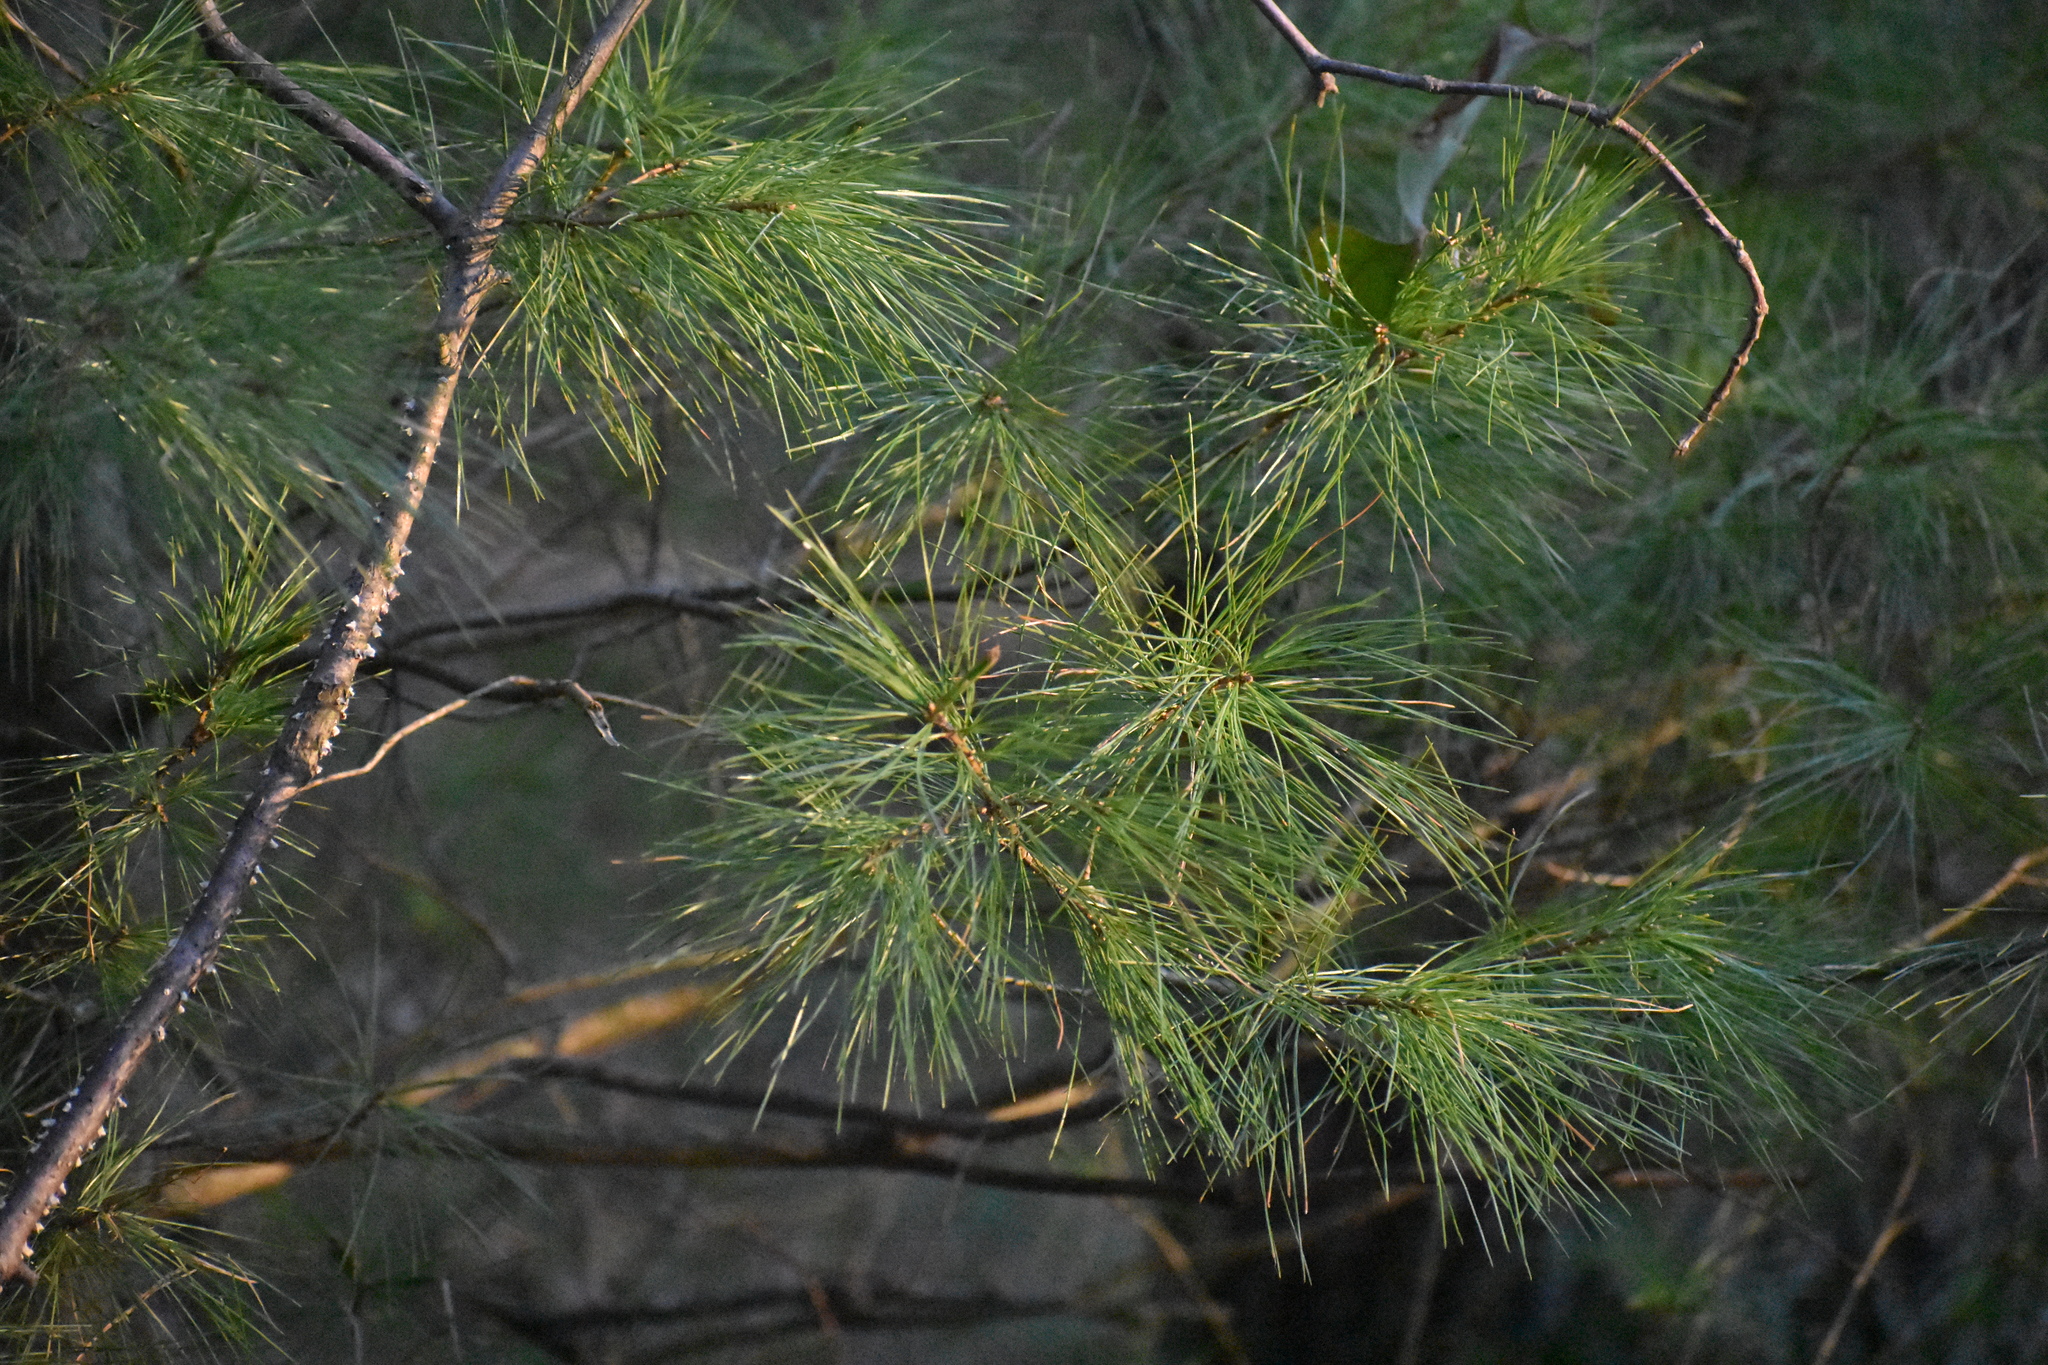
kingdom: Plantae
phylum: Tracheophyta
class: Pinopsida
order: Pinales
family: Pinaceae
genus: Pinus
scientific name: Pinus strobus
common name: Weymouth pine
